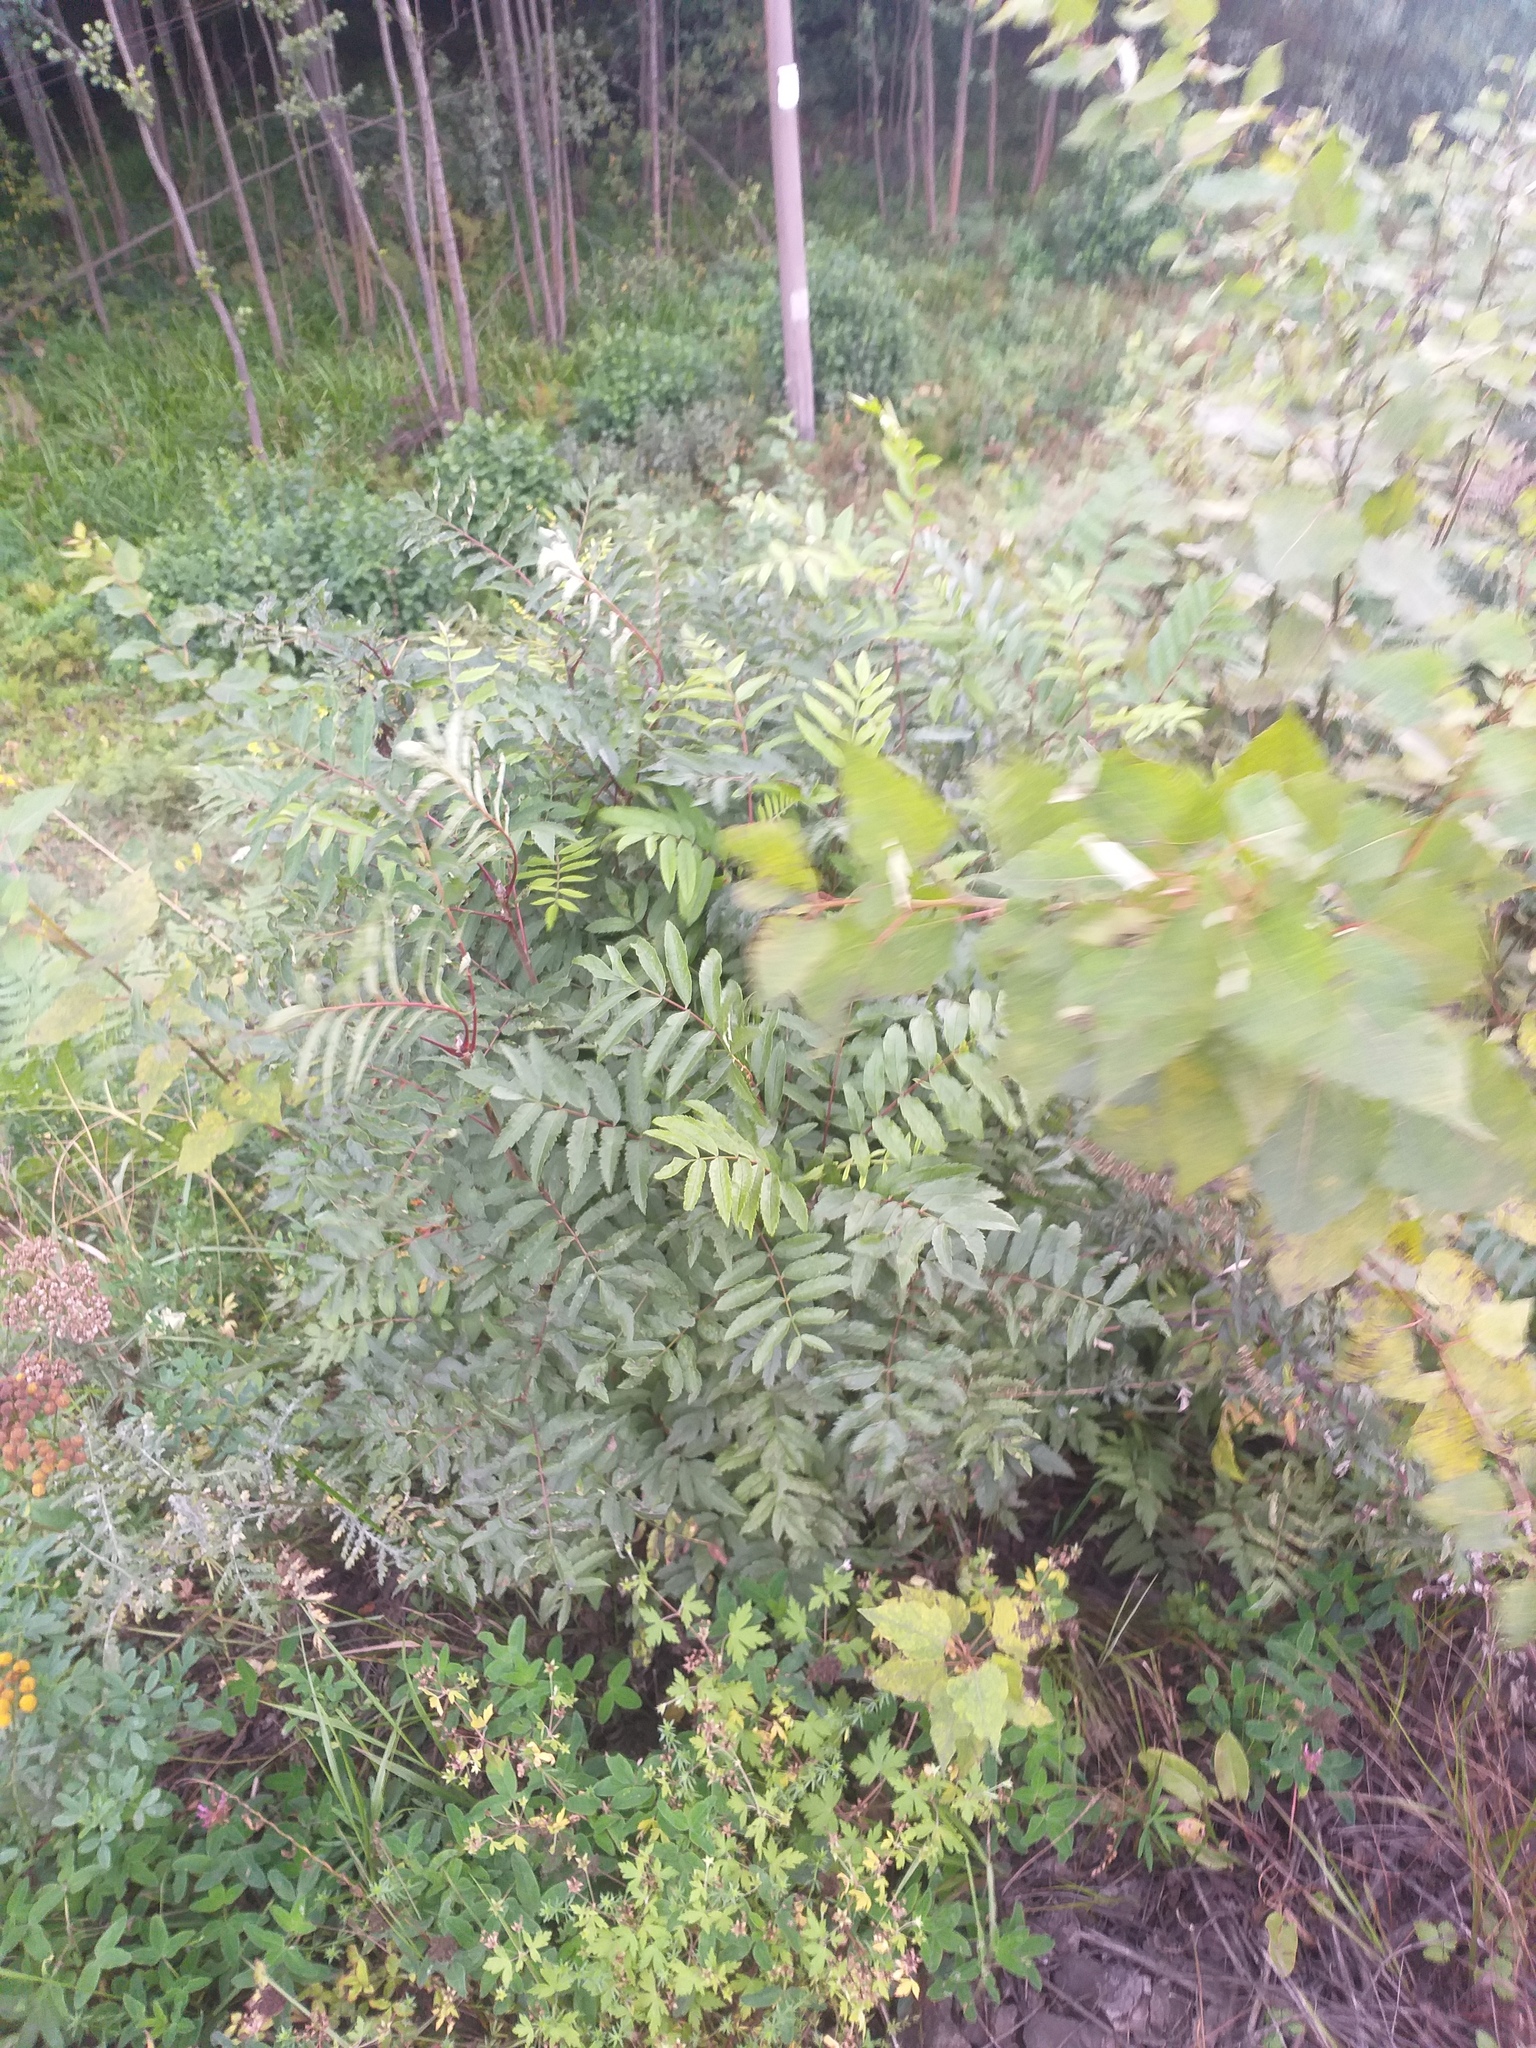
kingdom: Plantae
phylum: Tracheophyta
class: Magnoliopsida
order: Rosales
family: Rosaceae
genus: Sorbus
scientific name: Sorbus aucuparia
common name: Rowan
